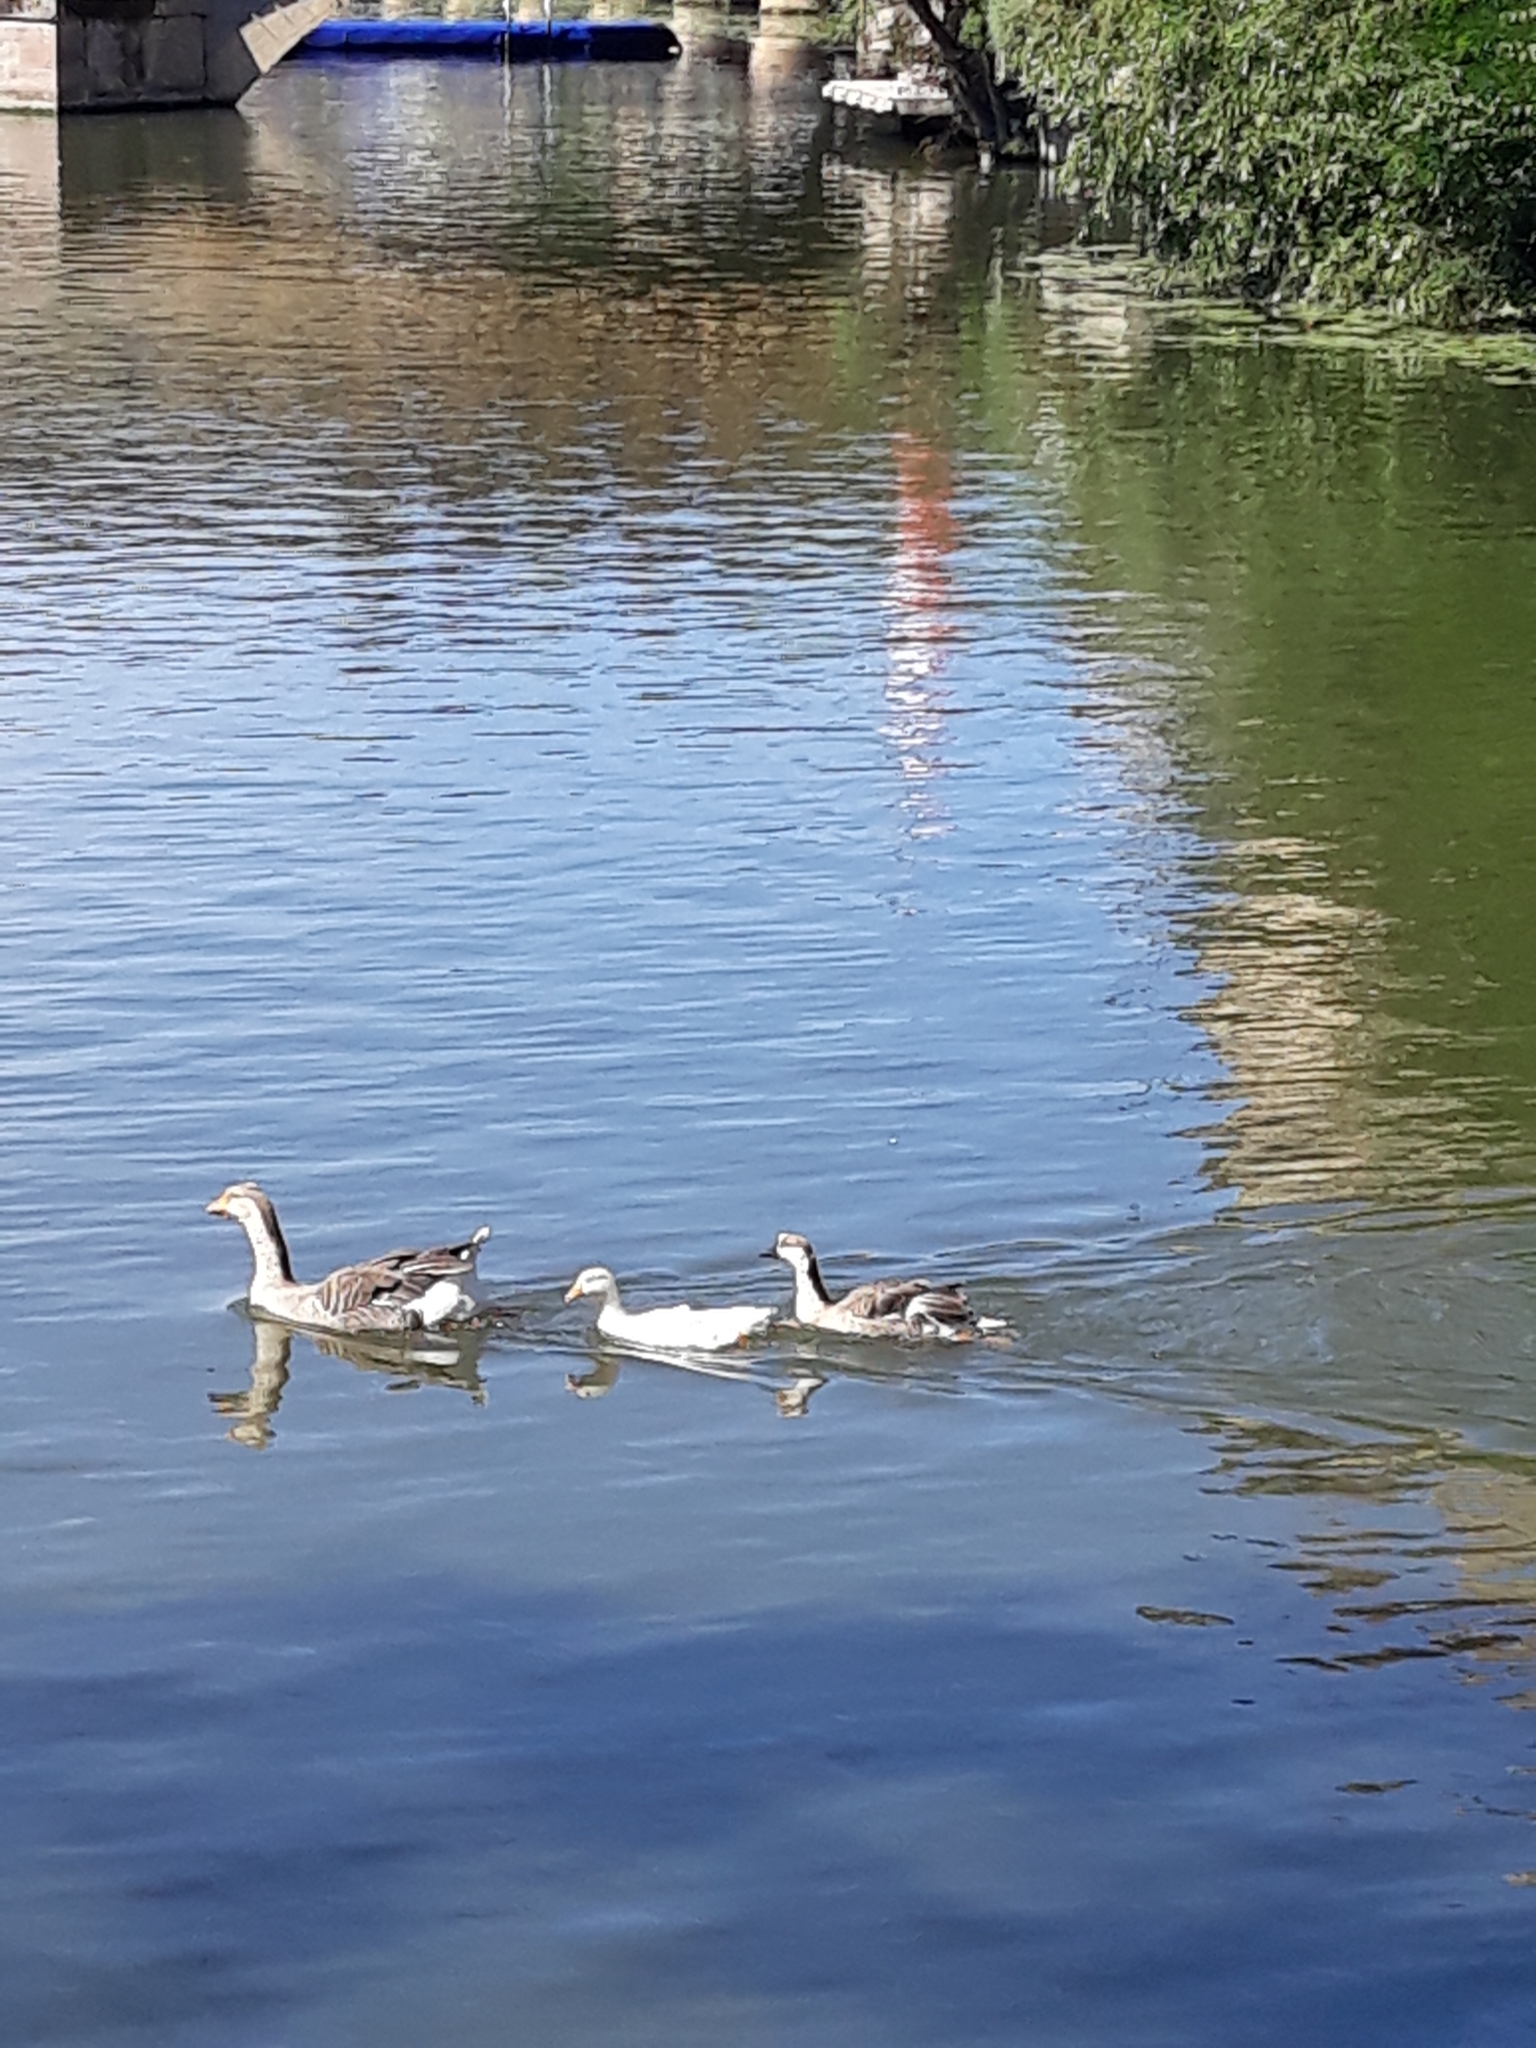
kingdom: Animalia
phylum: Chordata
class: Aves
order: Anseriformes
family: Anatidae
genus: Anser
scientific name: Anser cygnoides
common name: Swan goose
